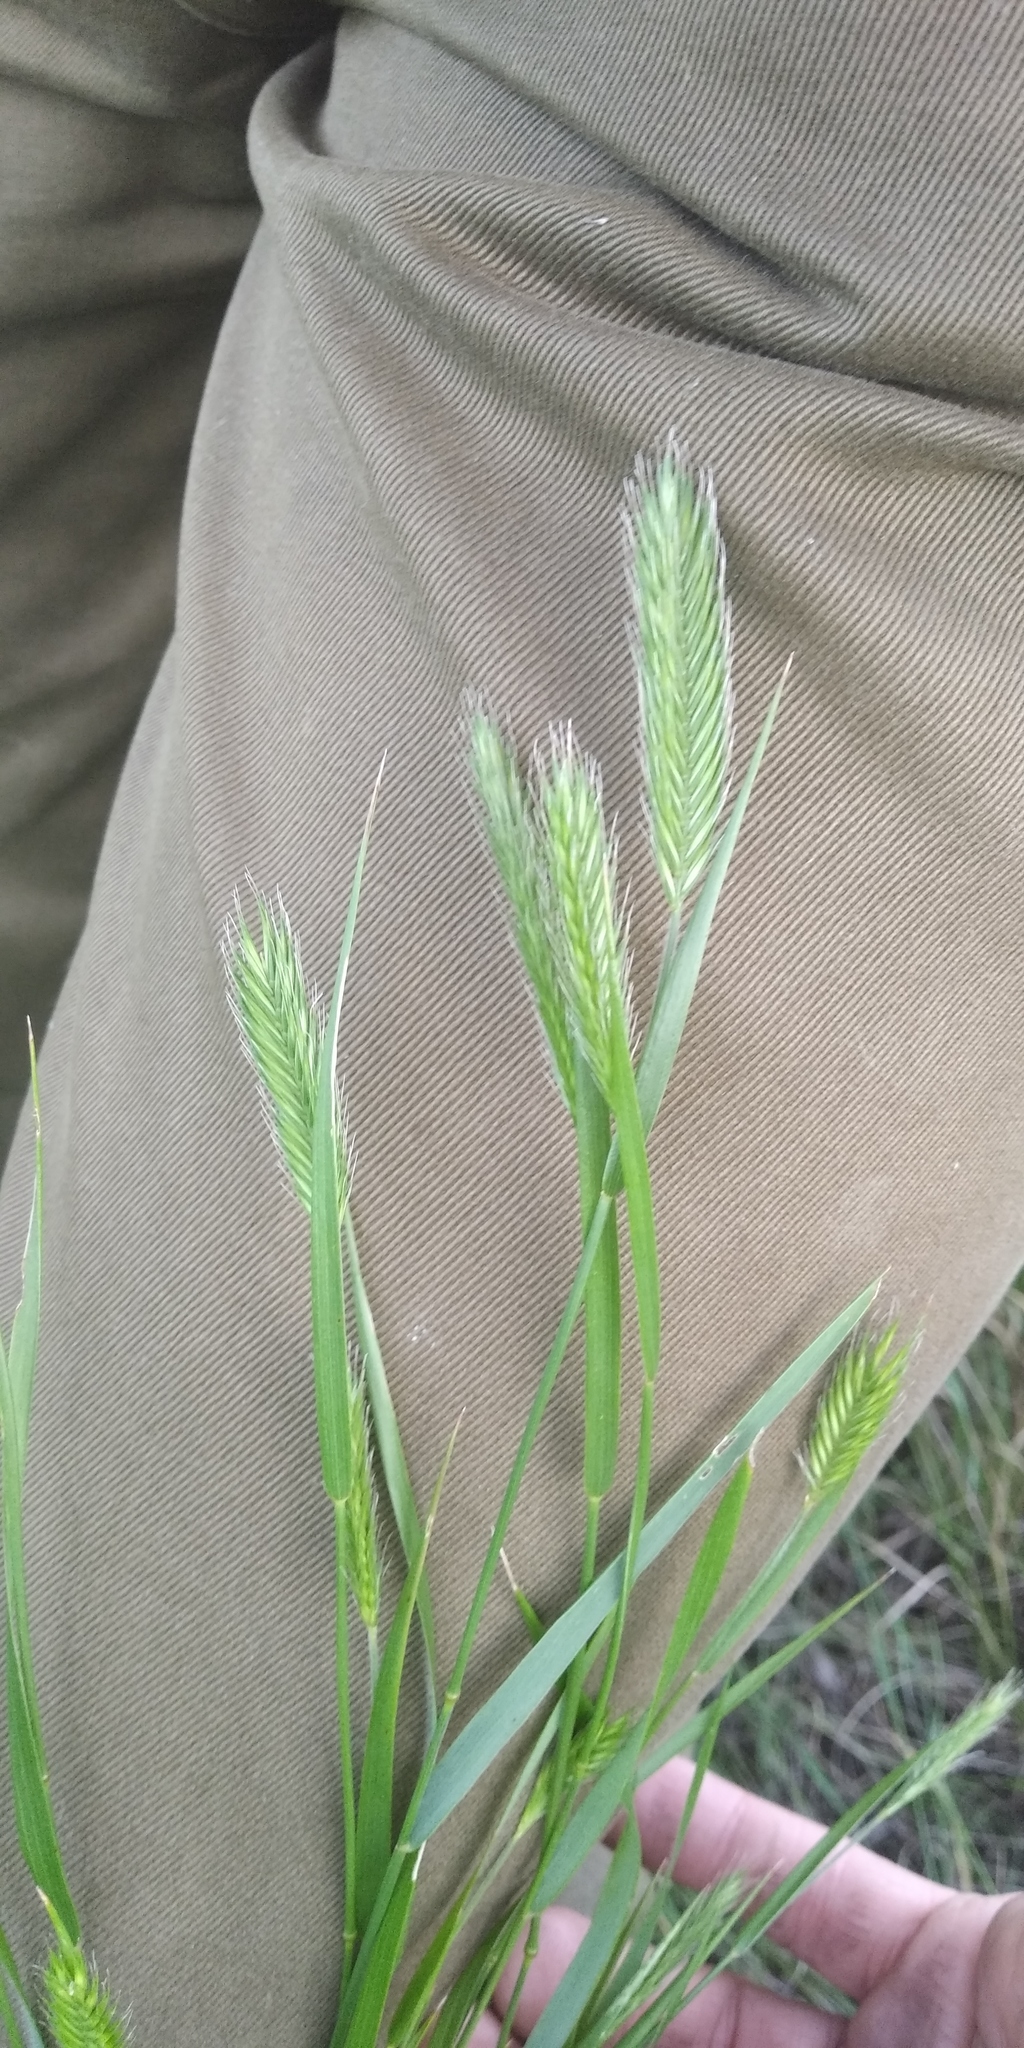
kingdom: Plantae
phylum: Tracheophyta
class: Liliopsida
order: Poales
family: Poaceae
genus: Hordeum
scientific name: Hordeum murinum
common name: Wall barley
